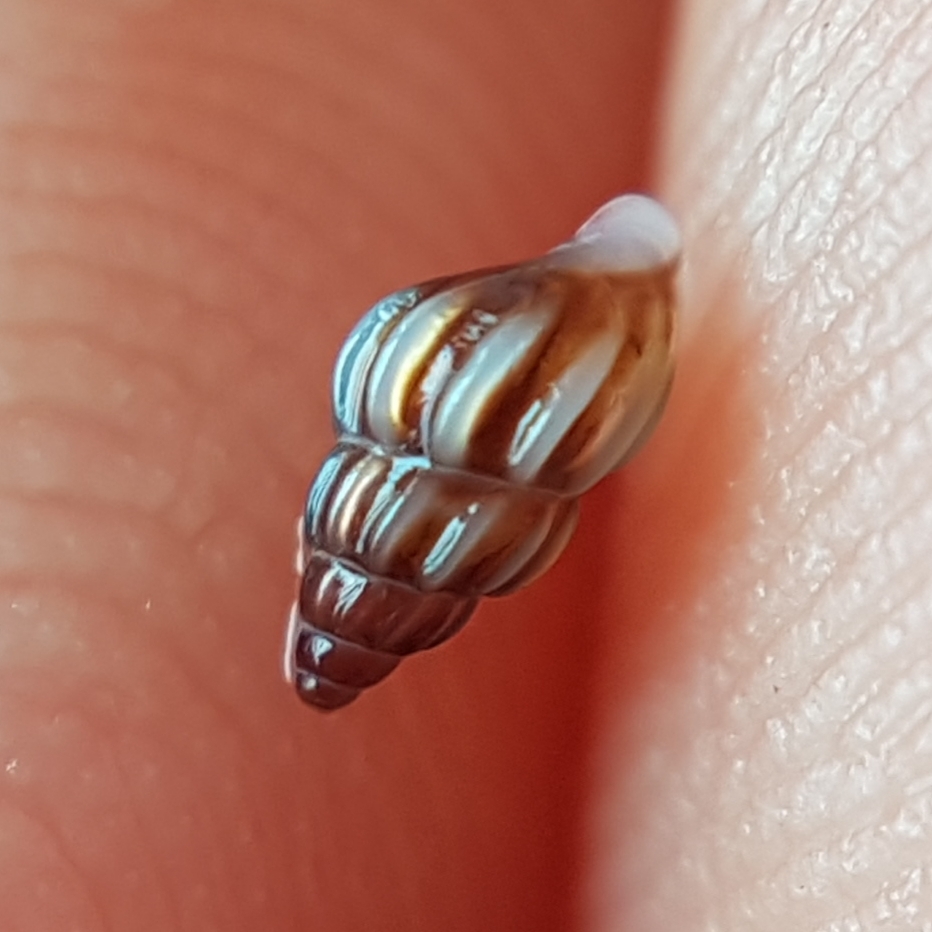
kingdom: Animalia
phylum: Mollusca
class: Gastropoda
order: Littorinimorpha
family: Rissoidae
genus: Rissoa
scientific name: Rissoa parva
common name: Tiny risso snail
